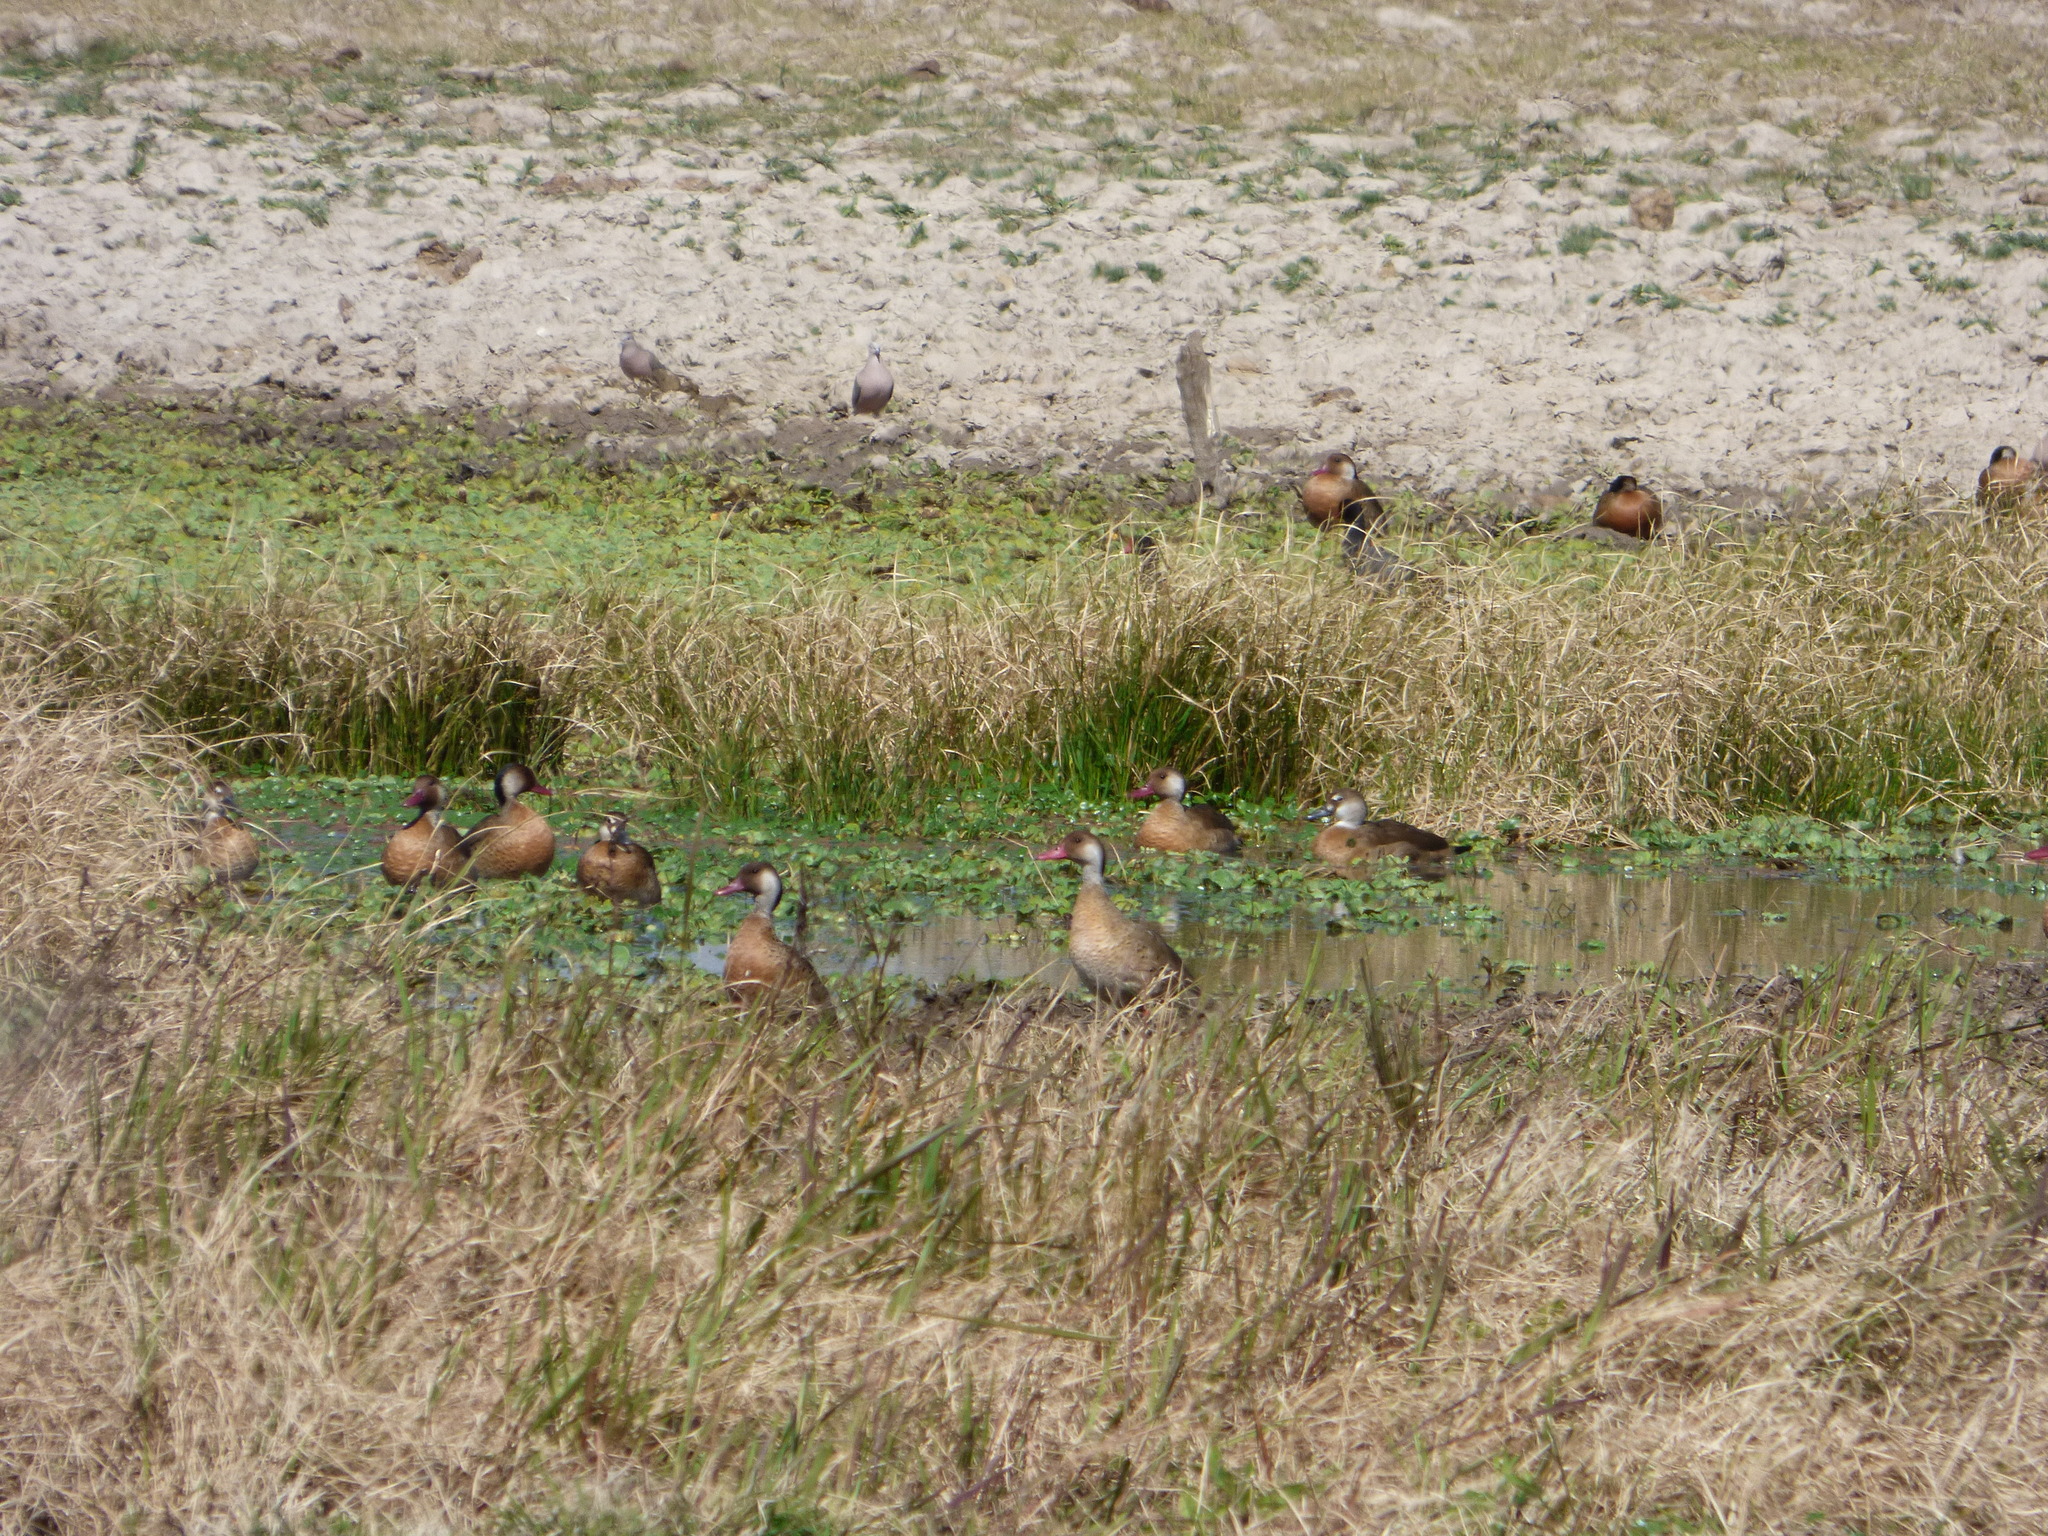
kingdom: Animalia
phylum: Chordata
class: Aves
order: Anseriformes
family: Anatidae
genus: Amazonetta
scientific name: Amazonetta brasiliensis
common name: Brazilian teal
